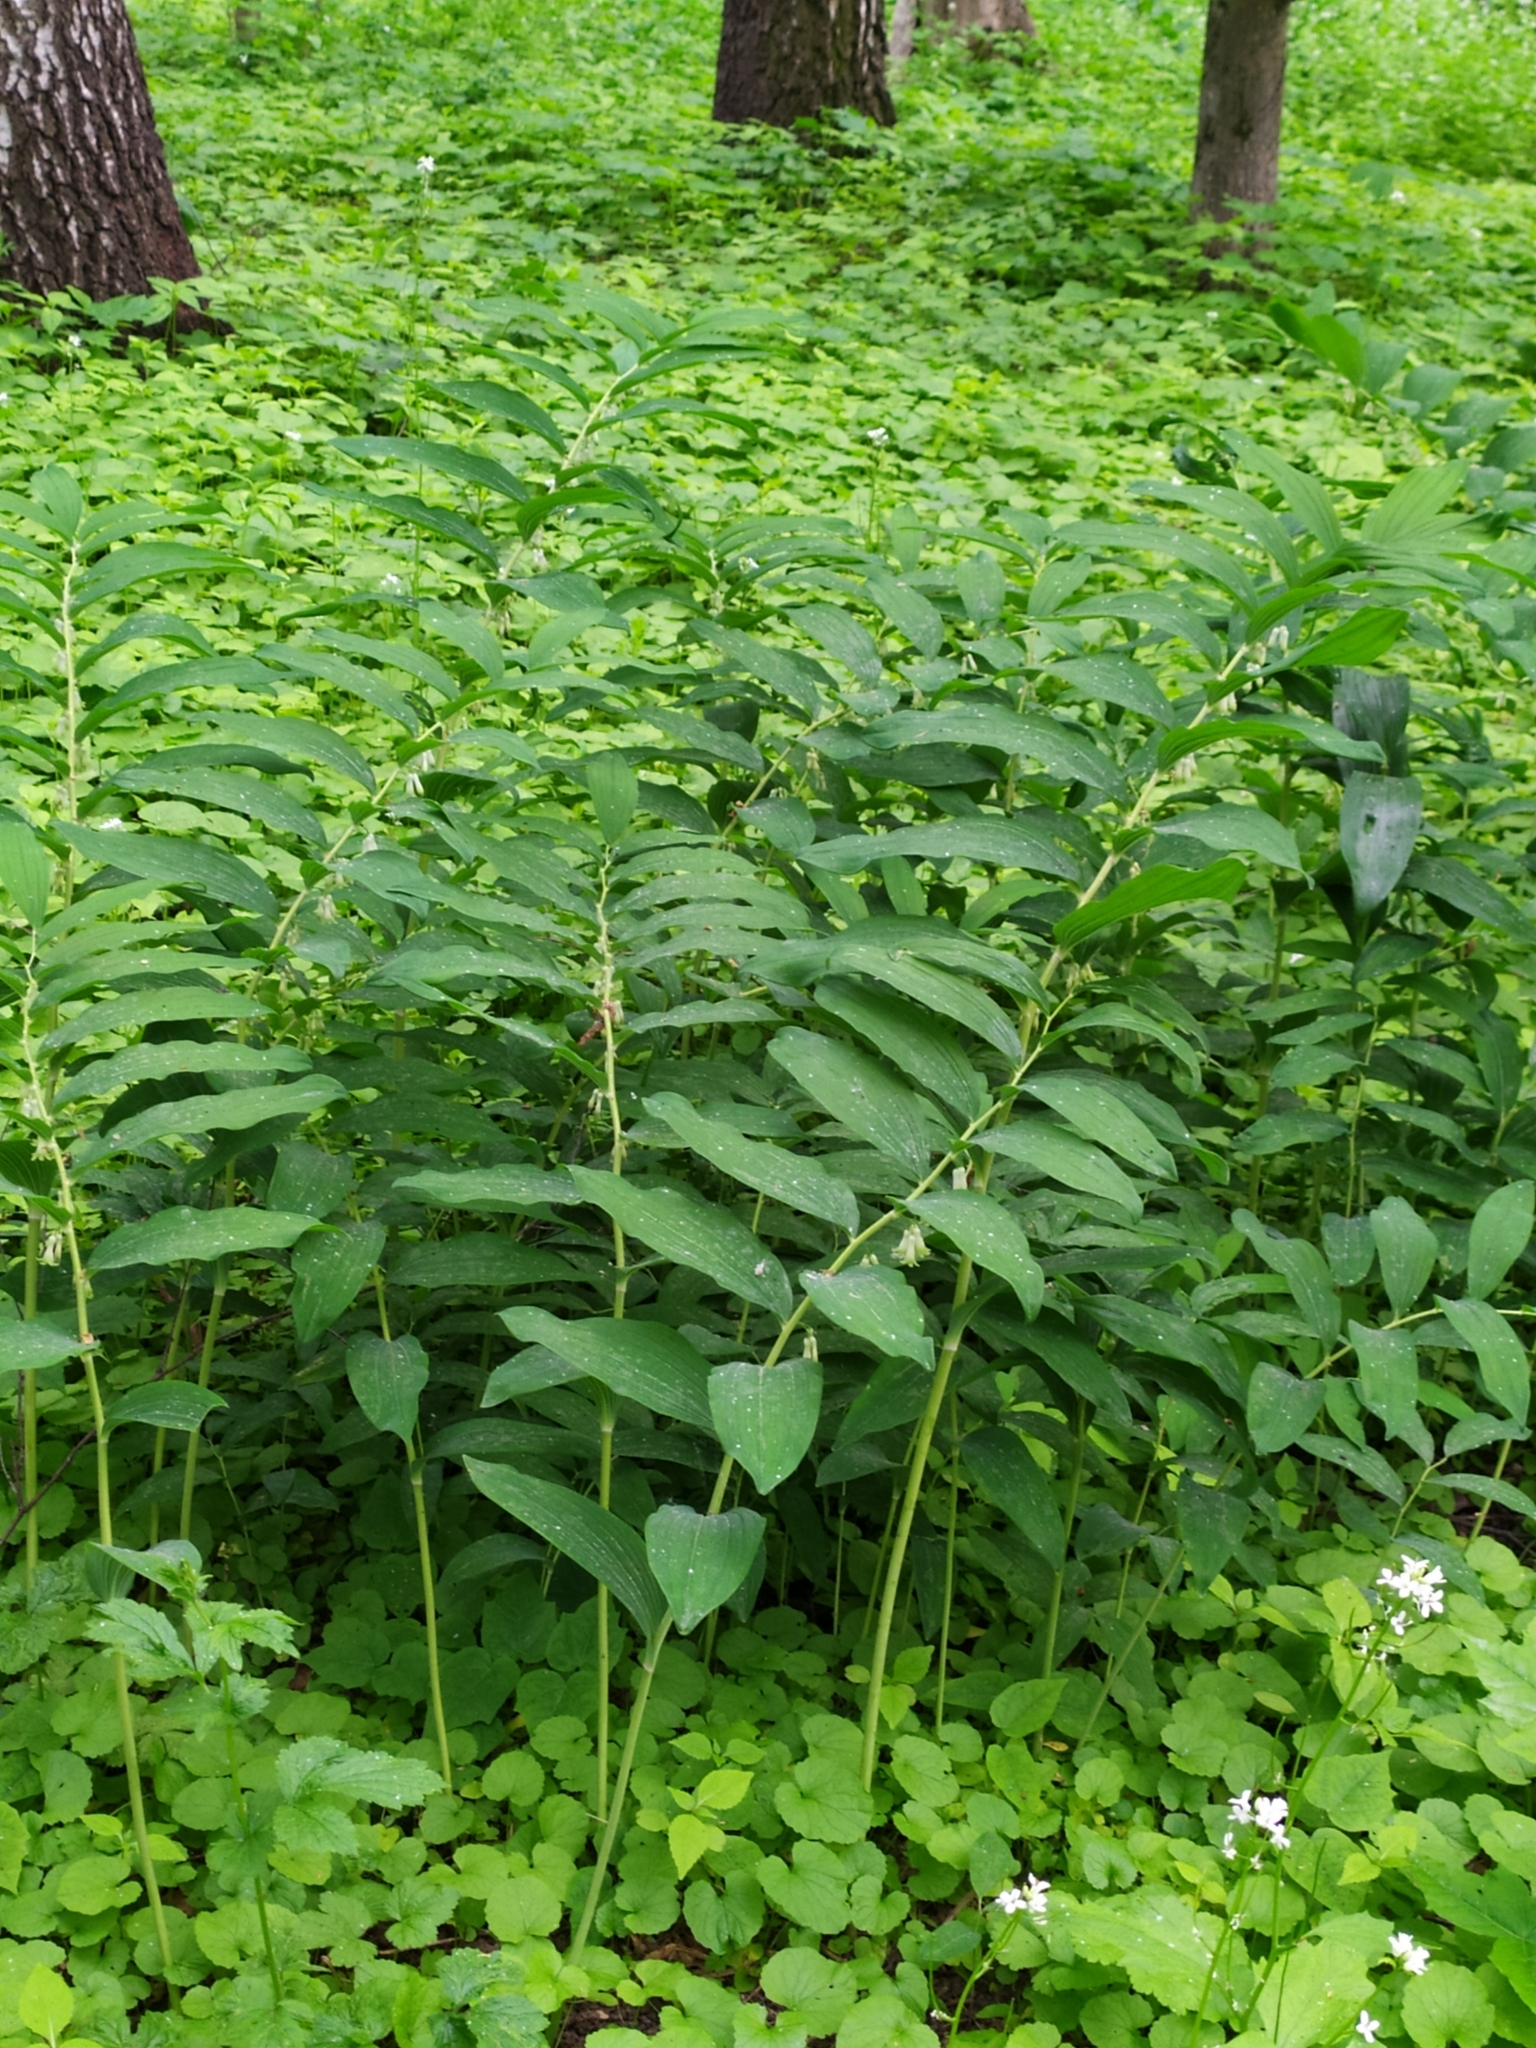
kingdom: Plantae
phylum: Tracheophyta
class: Liliopsida
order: Asparagales
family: Asparagaceae
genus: Polygonatum
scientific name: Polygonatum multiflorum
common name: Solomon's-seal
